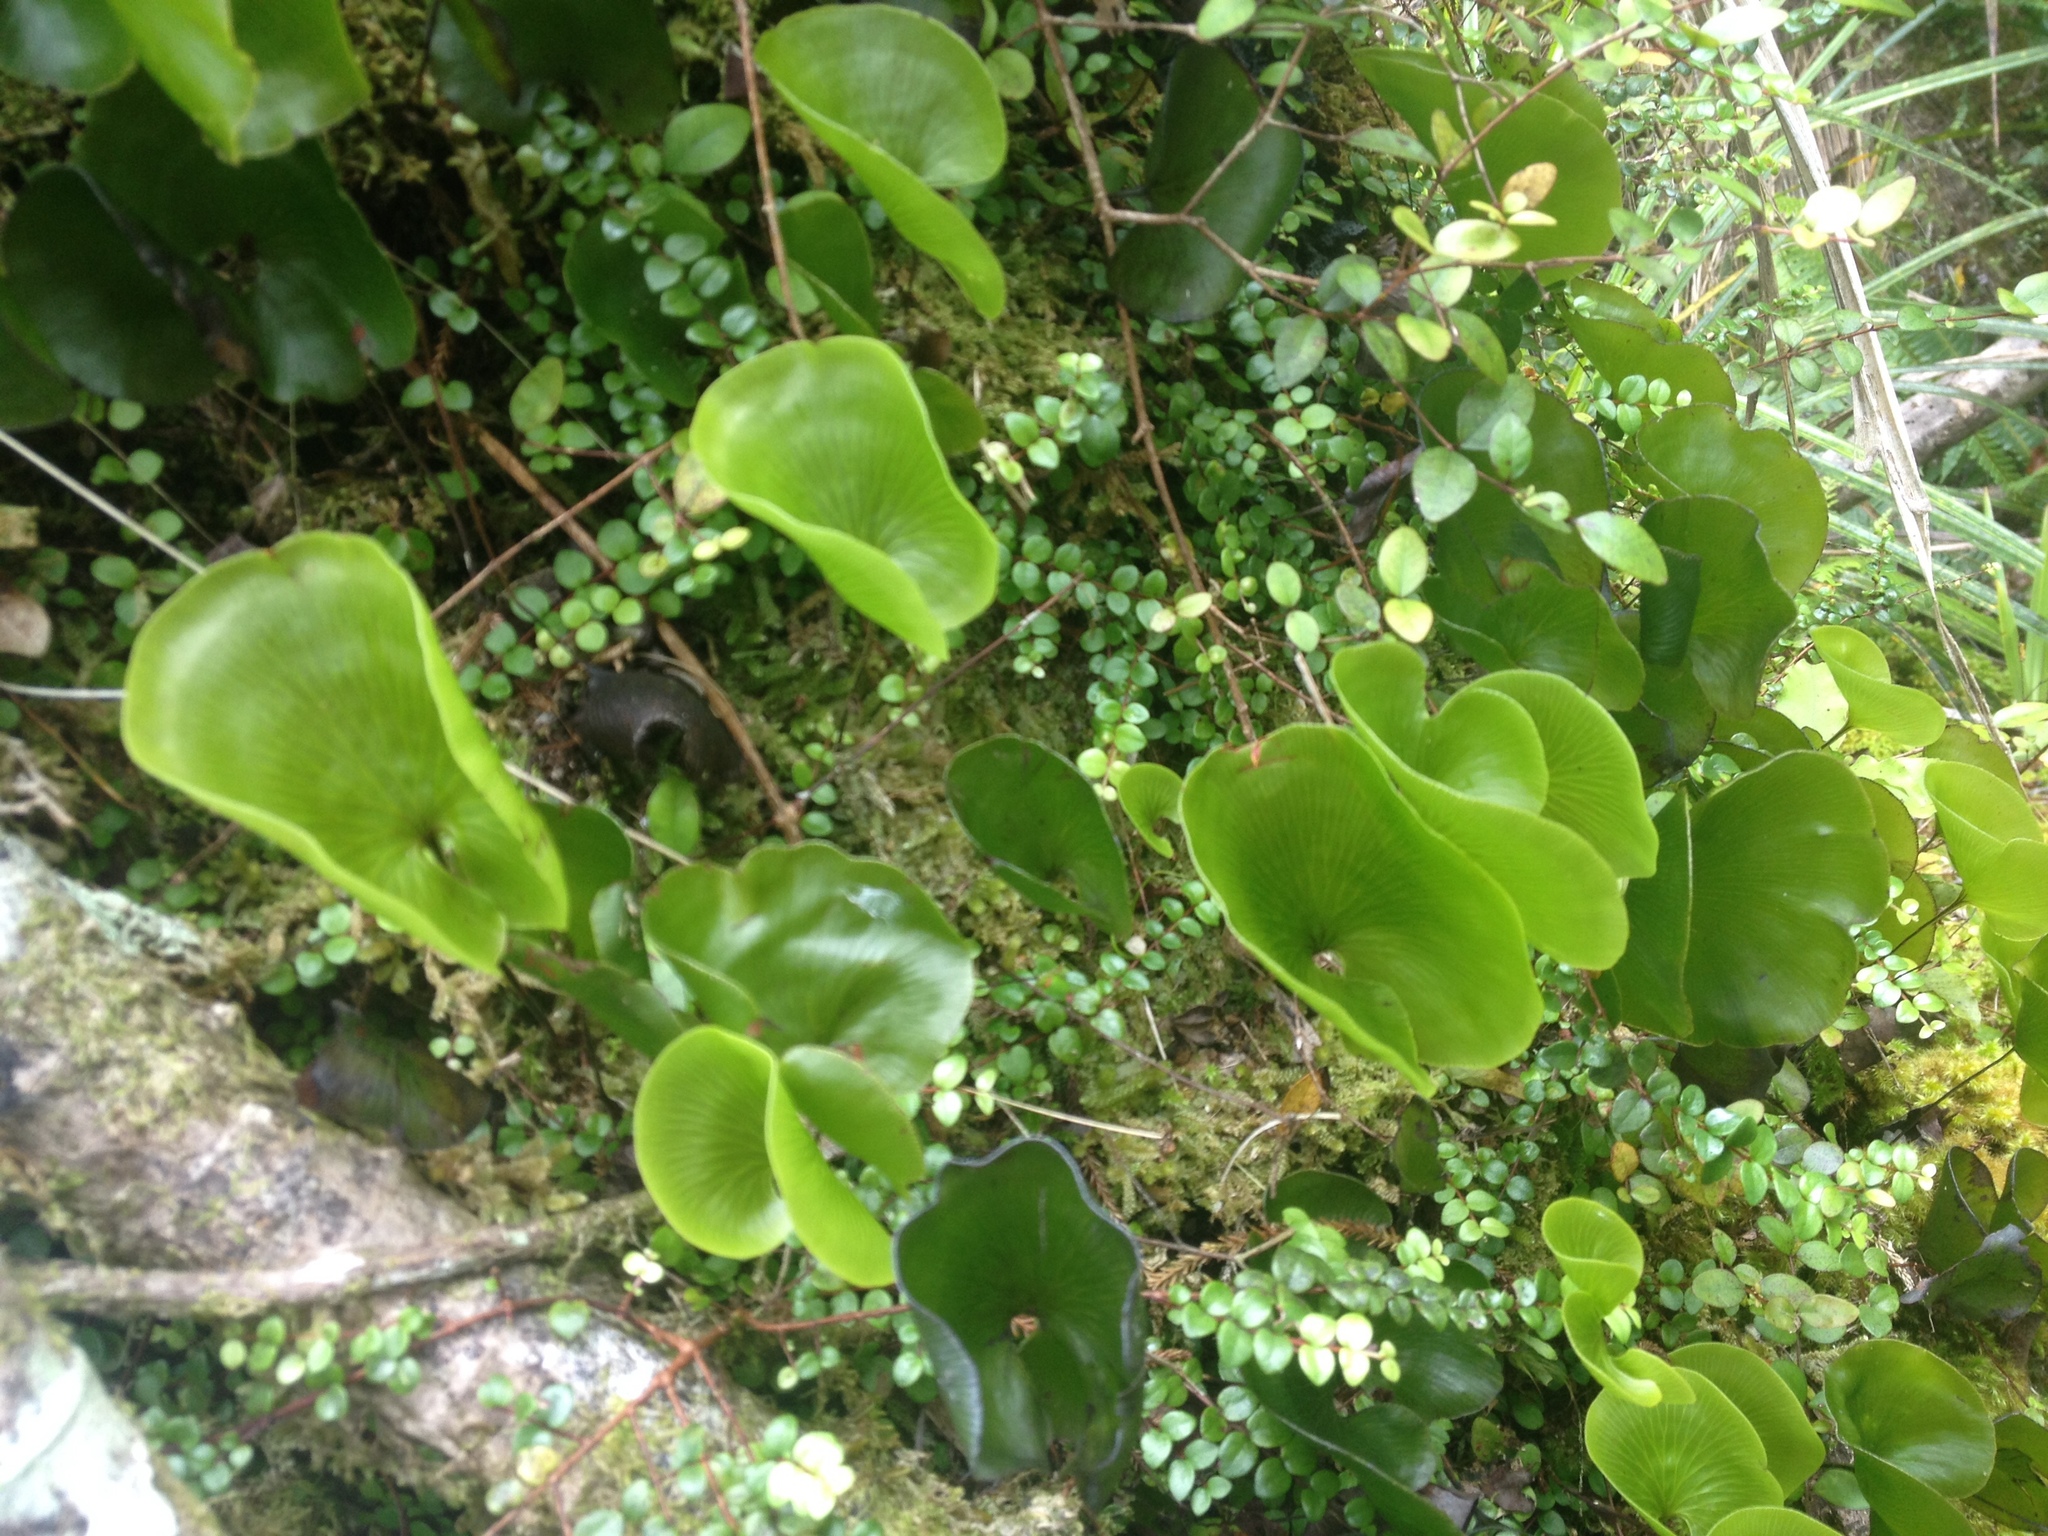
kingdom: Plantae
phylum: Tracheophyta
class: Polypodiopsida
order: Hymenophyllales
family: Hymenophyllaceae
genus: Hymenophyllum
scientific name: Hymenophyllum nephrophyllum
